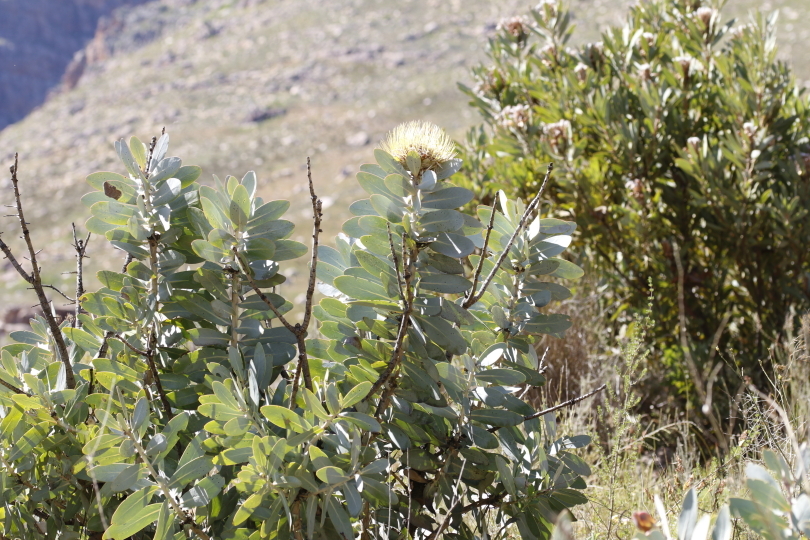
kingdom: Plantae
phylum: Tracheophyta
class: Magnoliopsida
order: Proteales
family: Proteaceae
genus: Protea
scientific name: Protea nitida
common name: Tree protea
